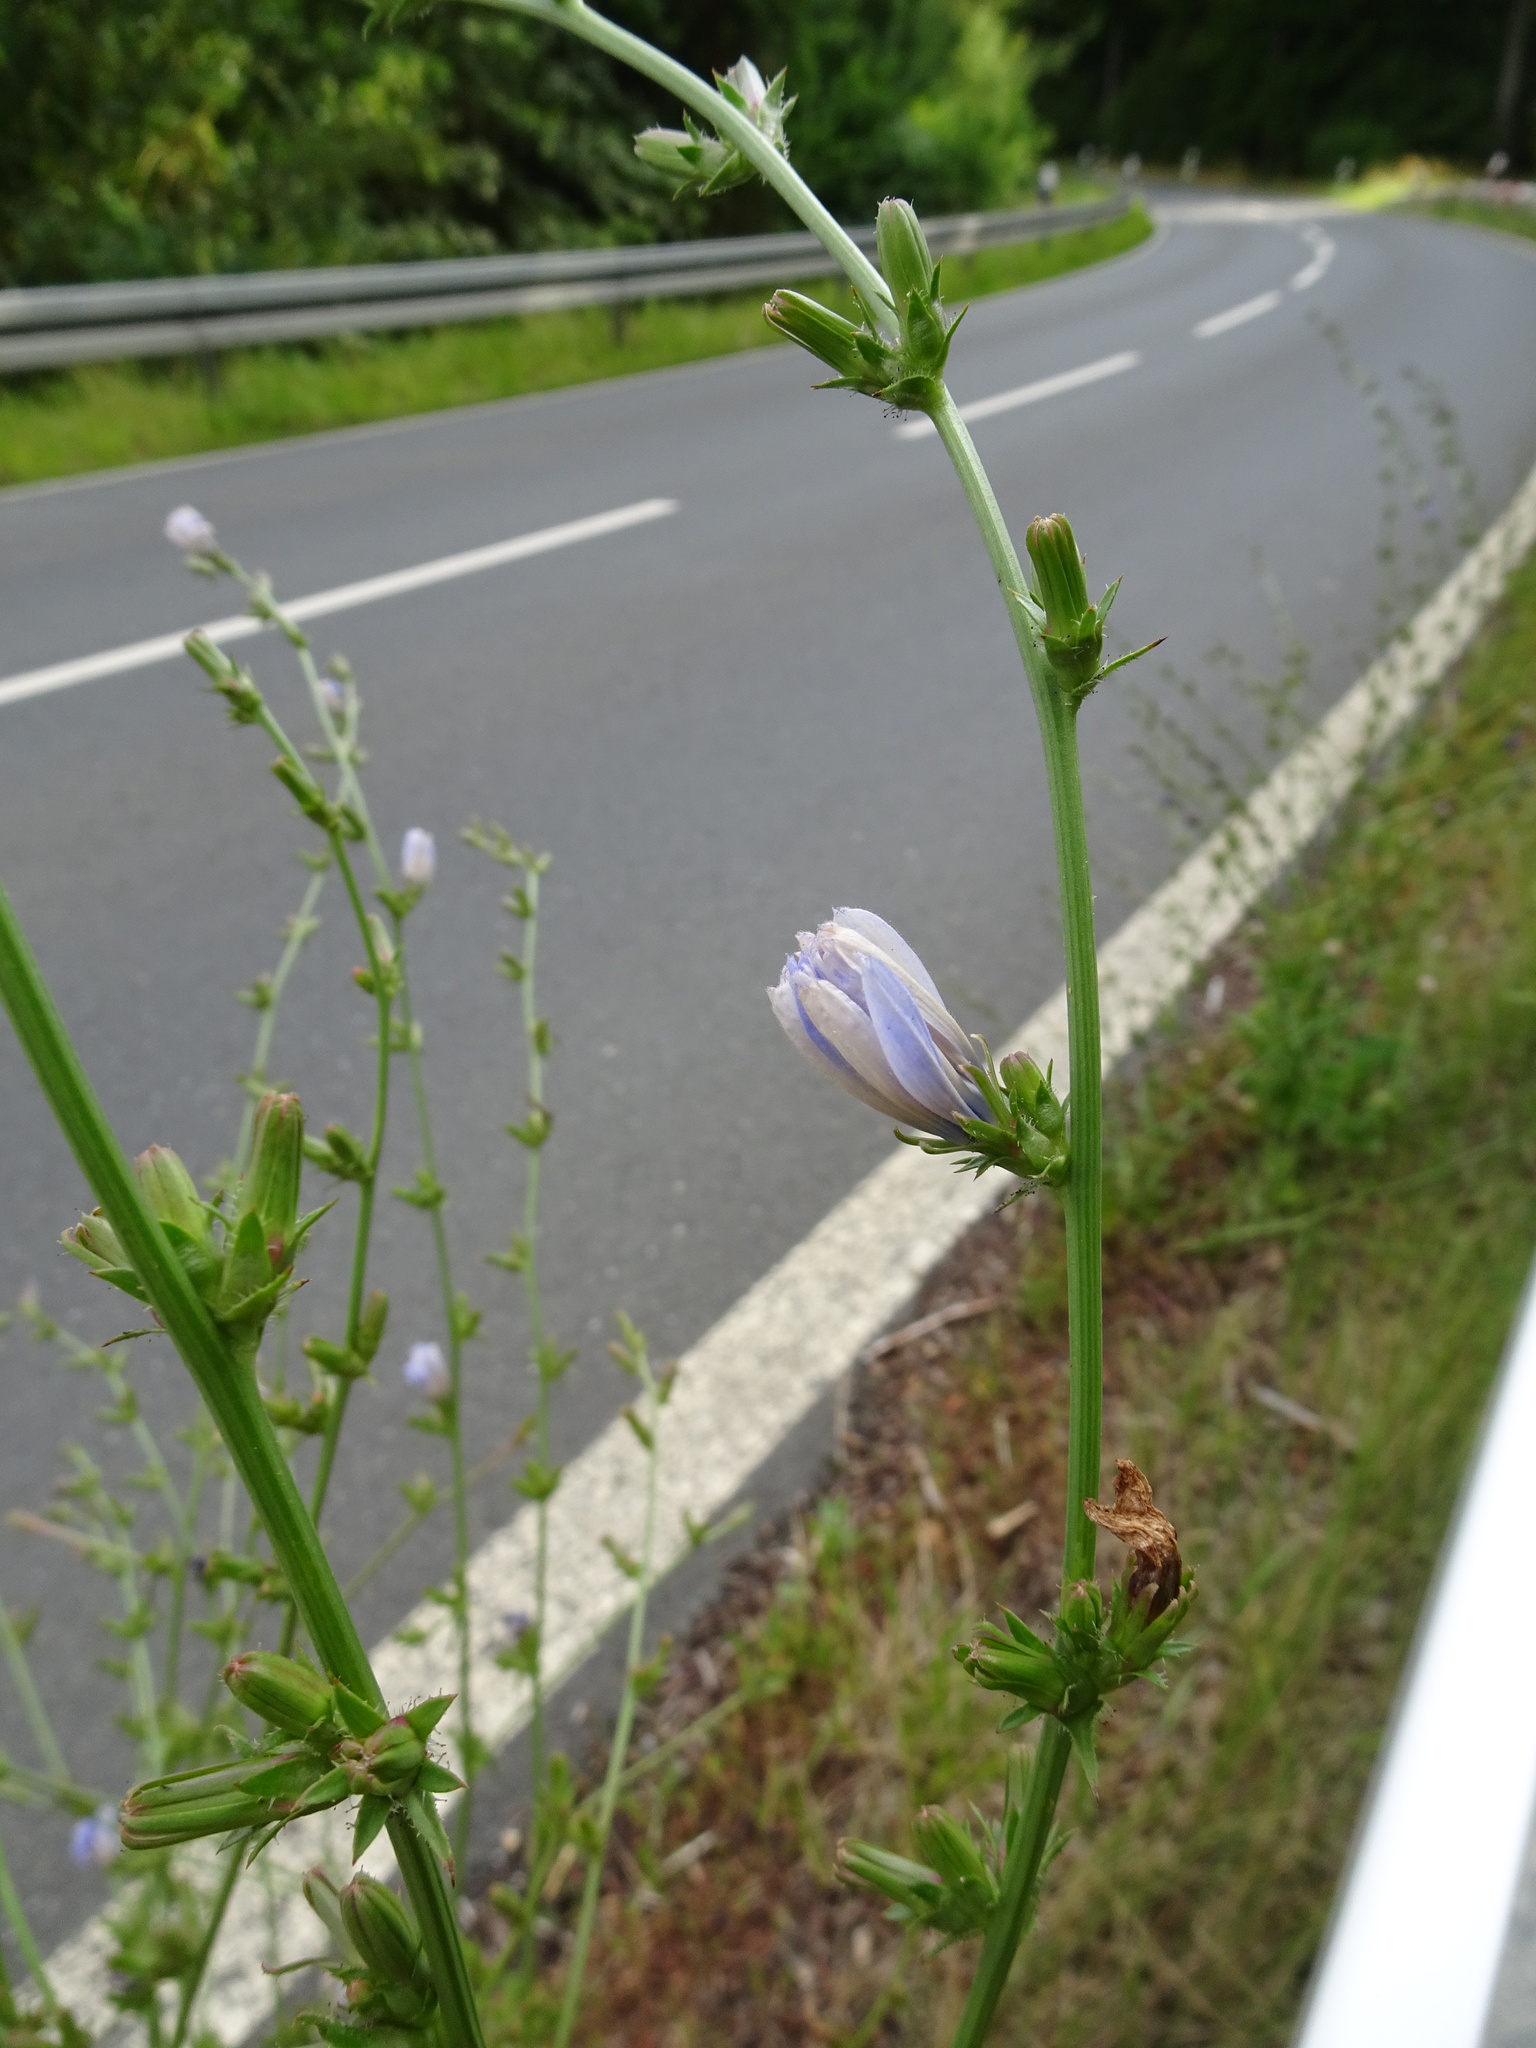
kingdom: Plantae
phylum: Tracheophyta
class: Magnoliopsida
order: Asterales
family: Asteraceae
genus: Cichorium
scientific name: Cichorium intybus
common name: Chicory
